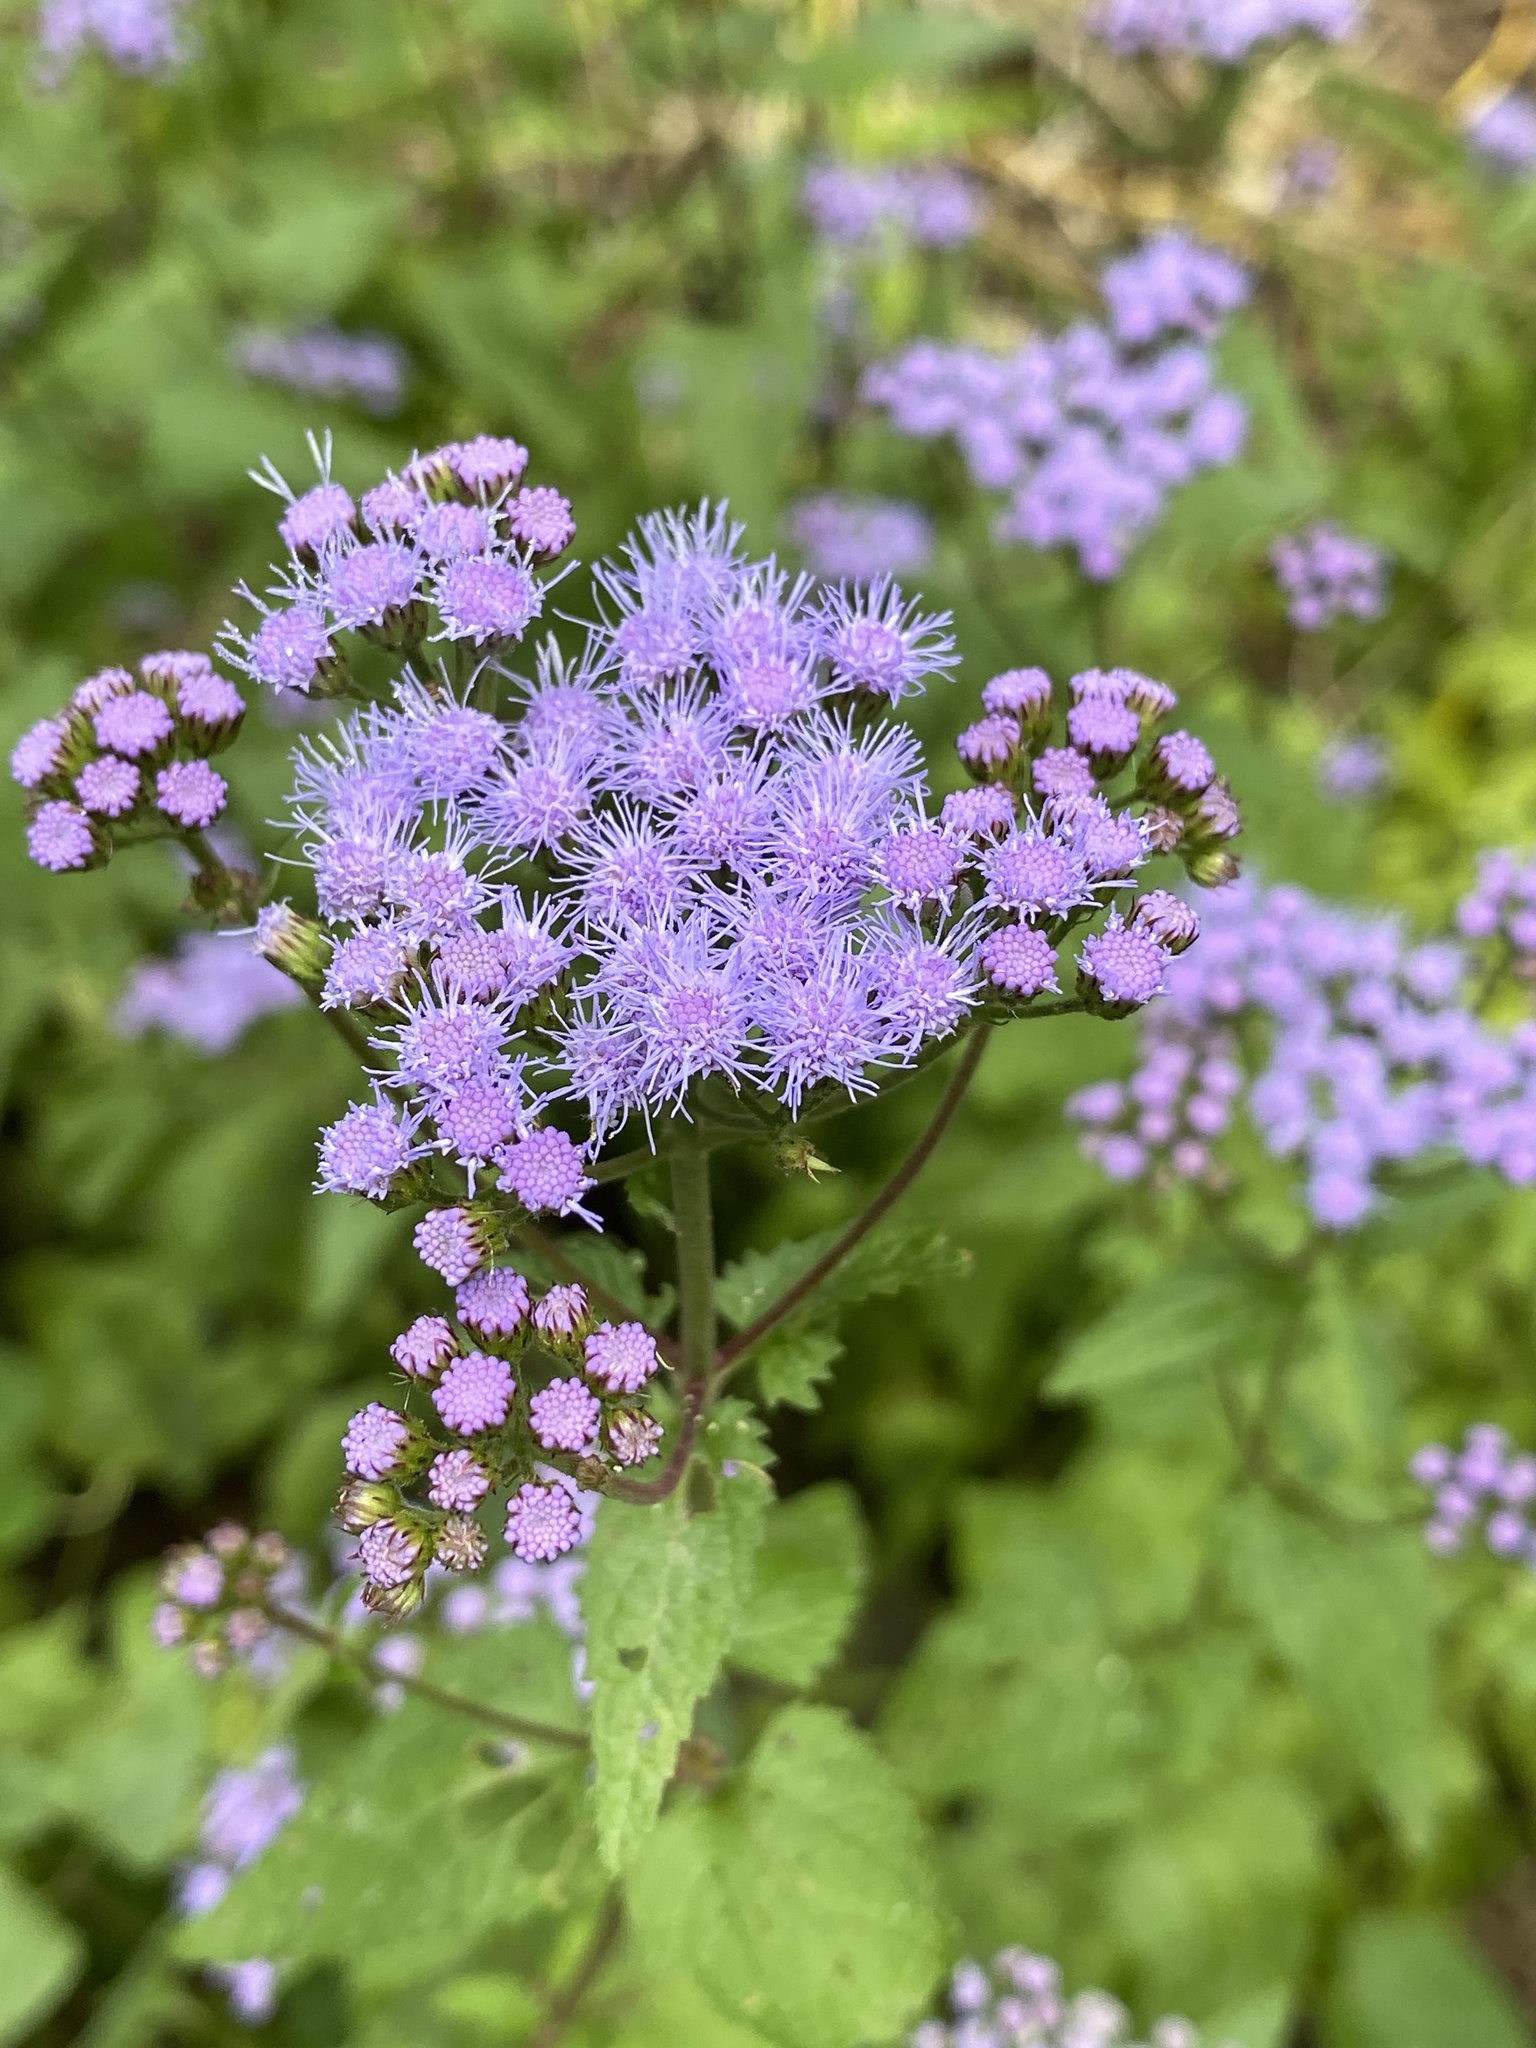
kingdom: Plantae
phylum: Tracheophyta
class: Magnoliopsida
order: Asterales
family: Asteraceae
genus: Conoclinium
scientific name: Conoclinium coelestinum
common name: Blue mistflower
